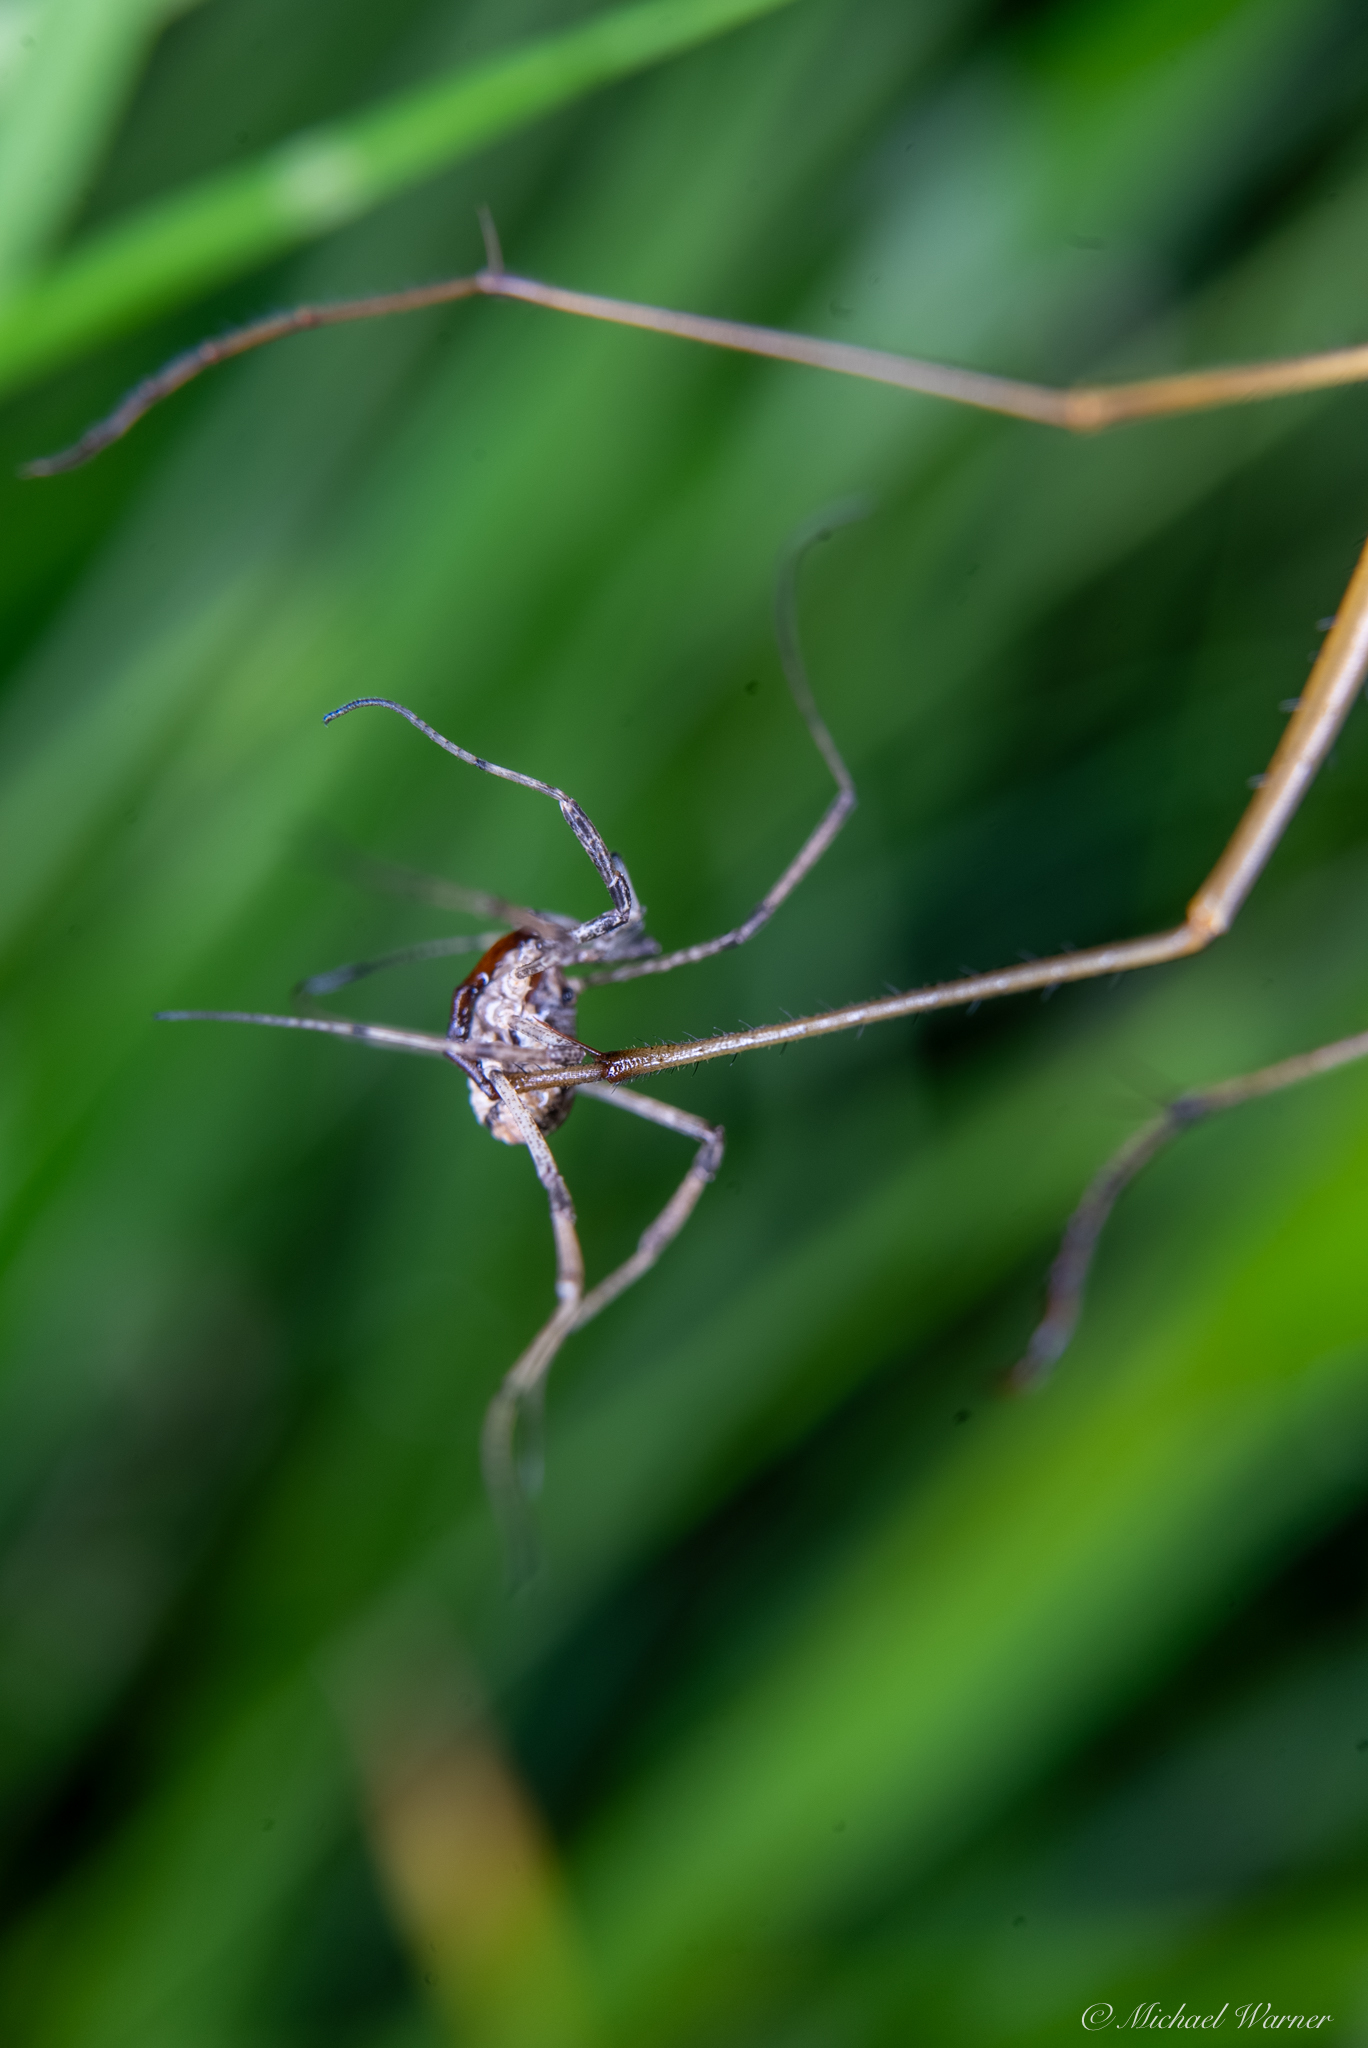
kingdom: Animalia
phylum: Arthropoda
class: Insecta
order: Mecoptera
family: Bittacidae
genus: Apterobittacus
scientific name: Apterobittacus apterus
